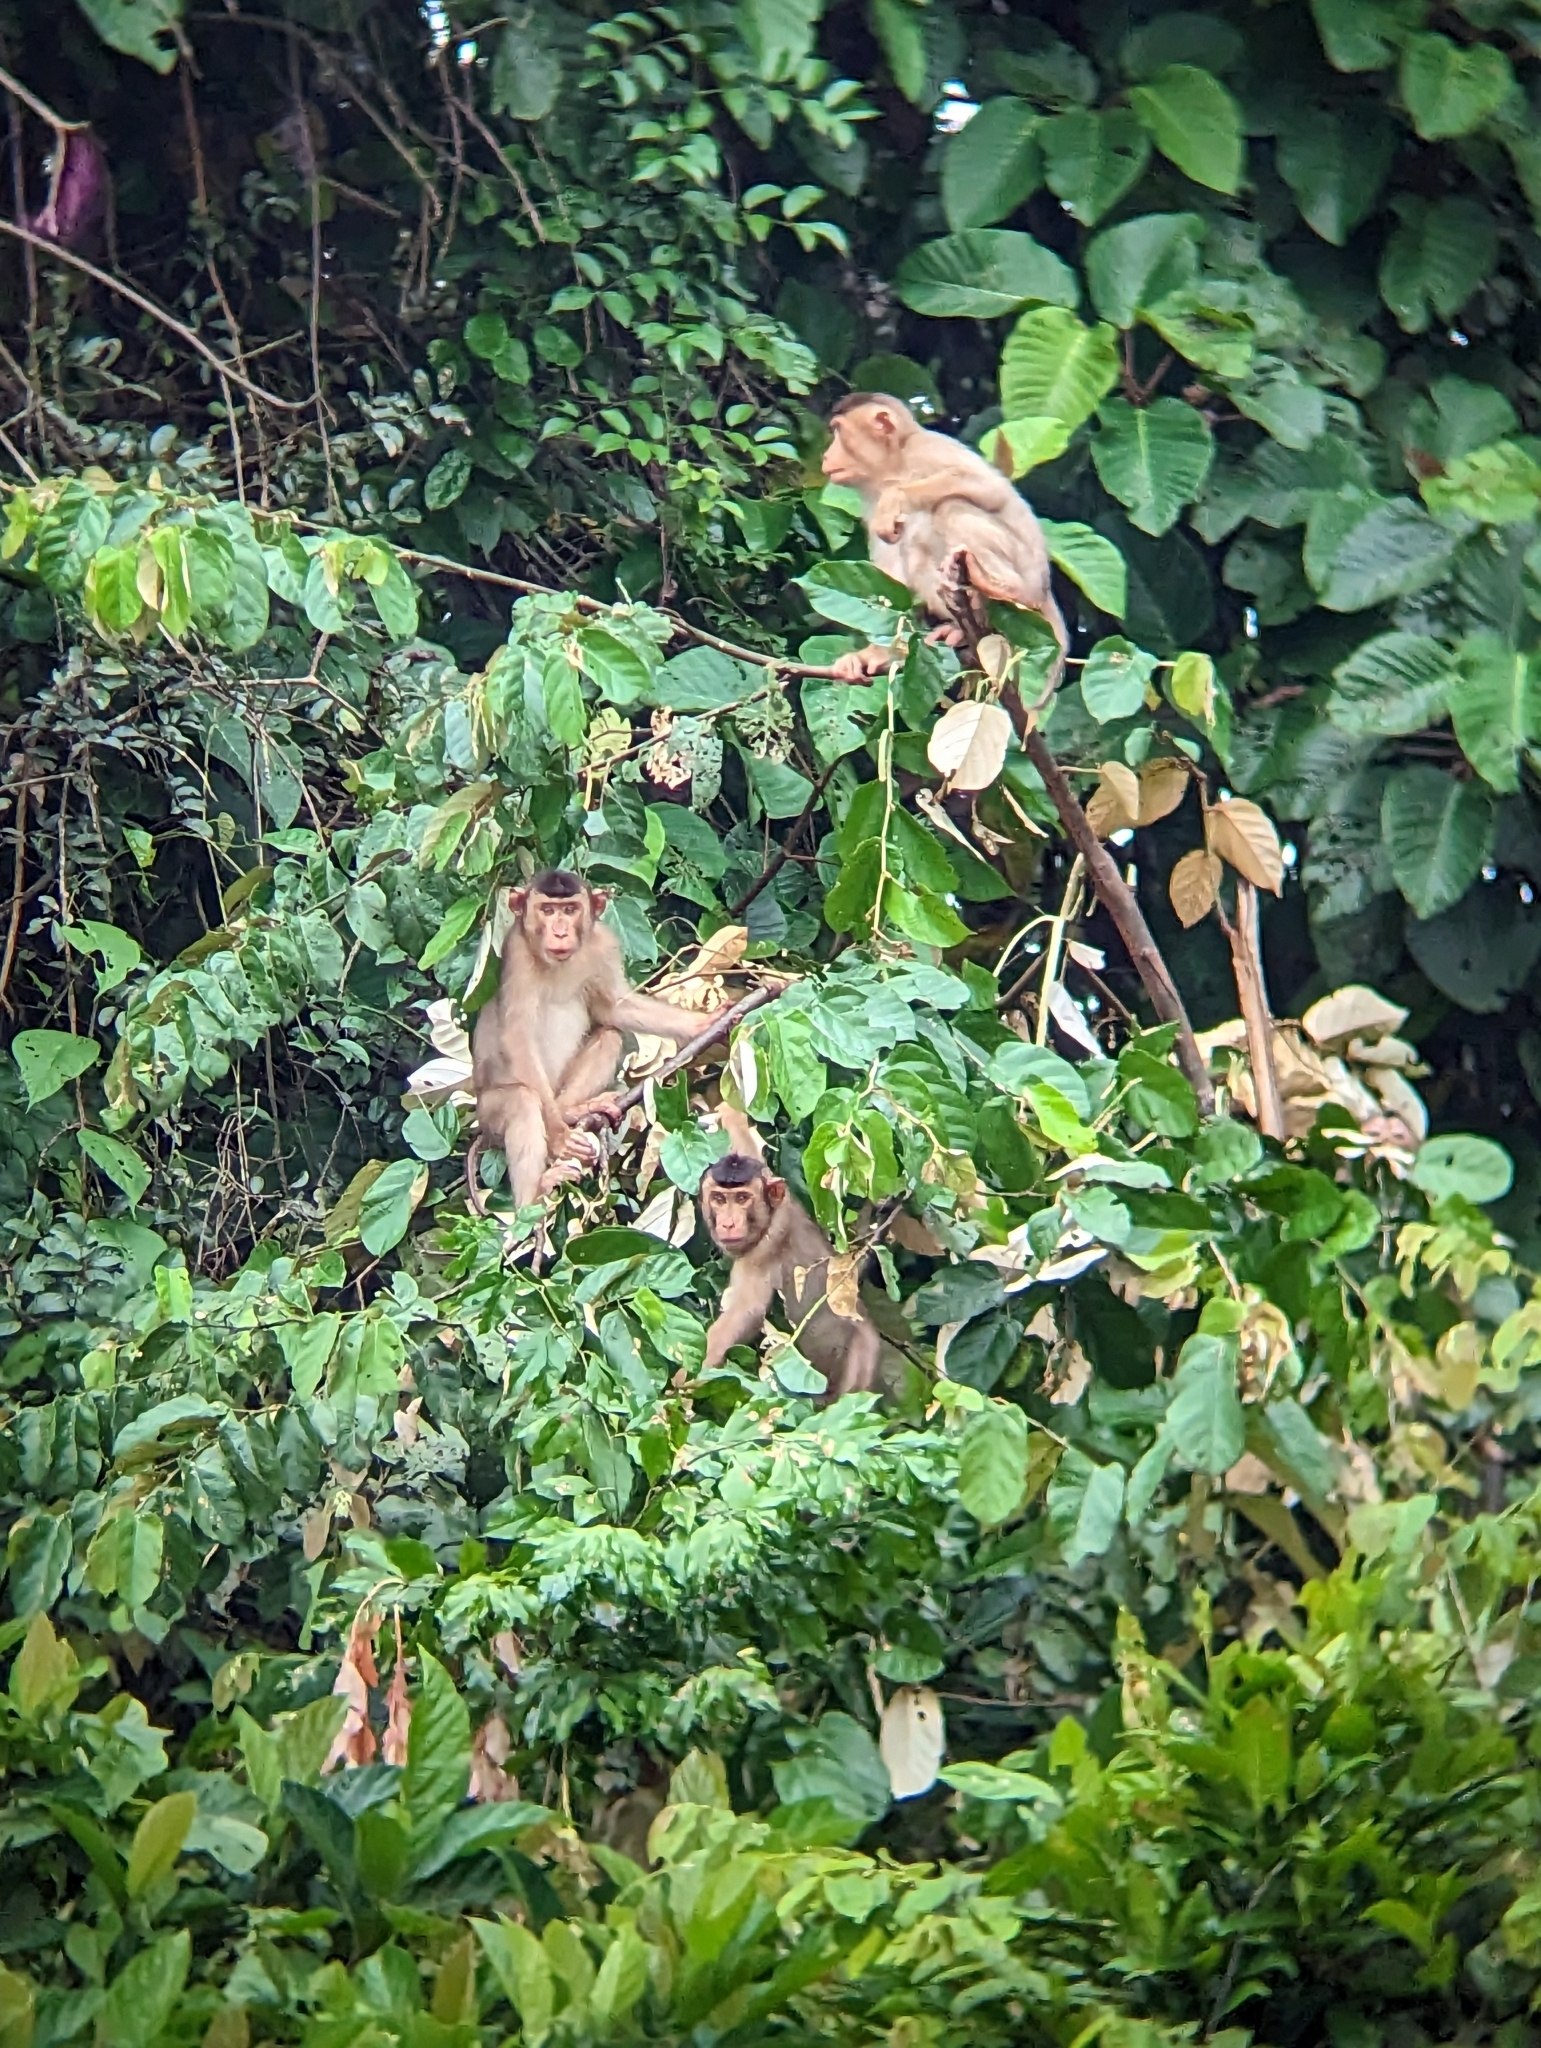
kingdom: Animalia
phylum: Chordata
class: Mammalia
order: Primates
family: Cercopithecidae
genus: Macaca
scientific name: Macaca nemestrina
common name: Southern pig-tailed macaque
